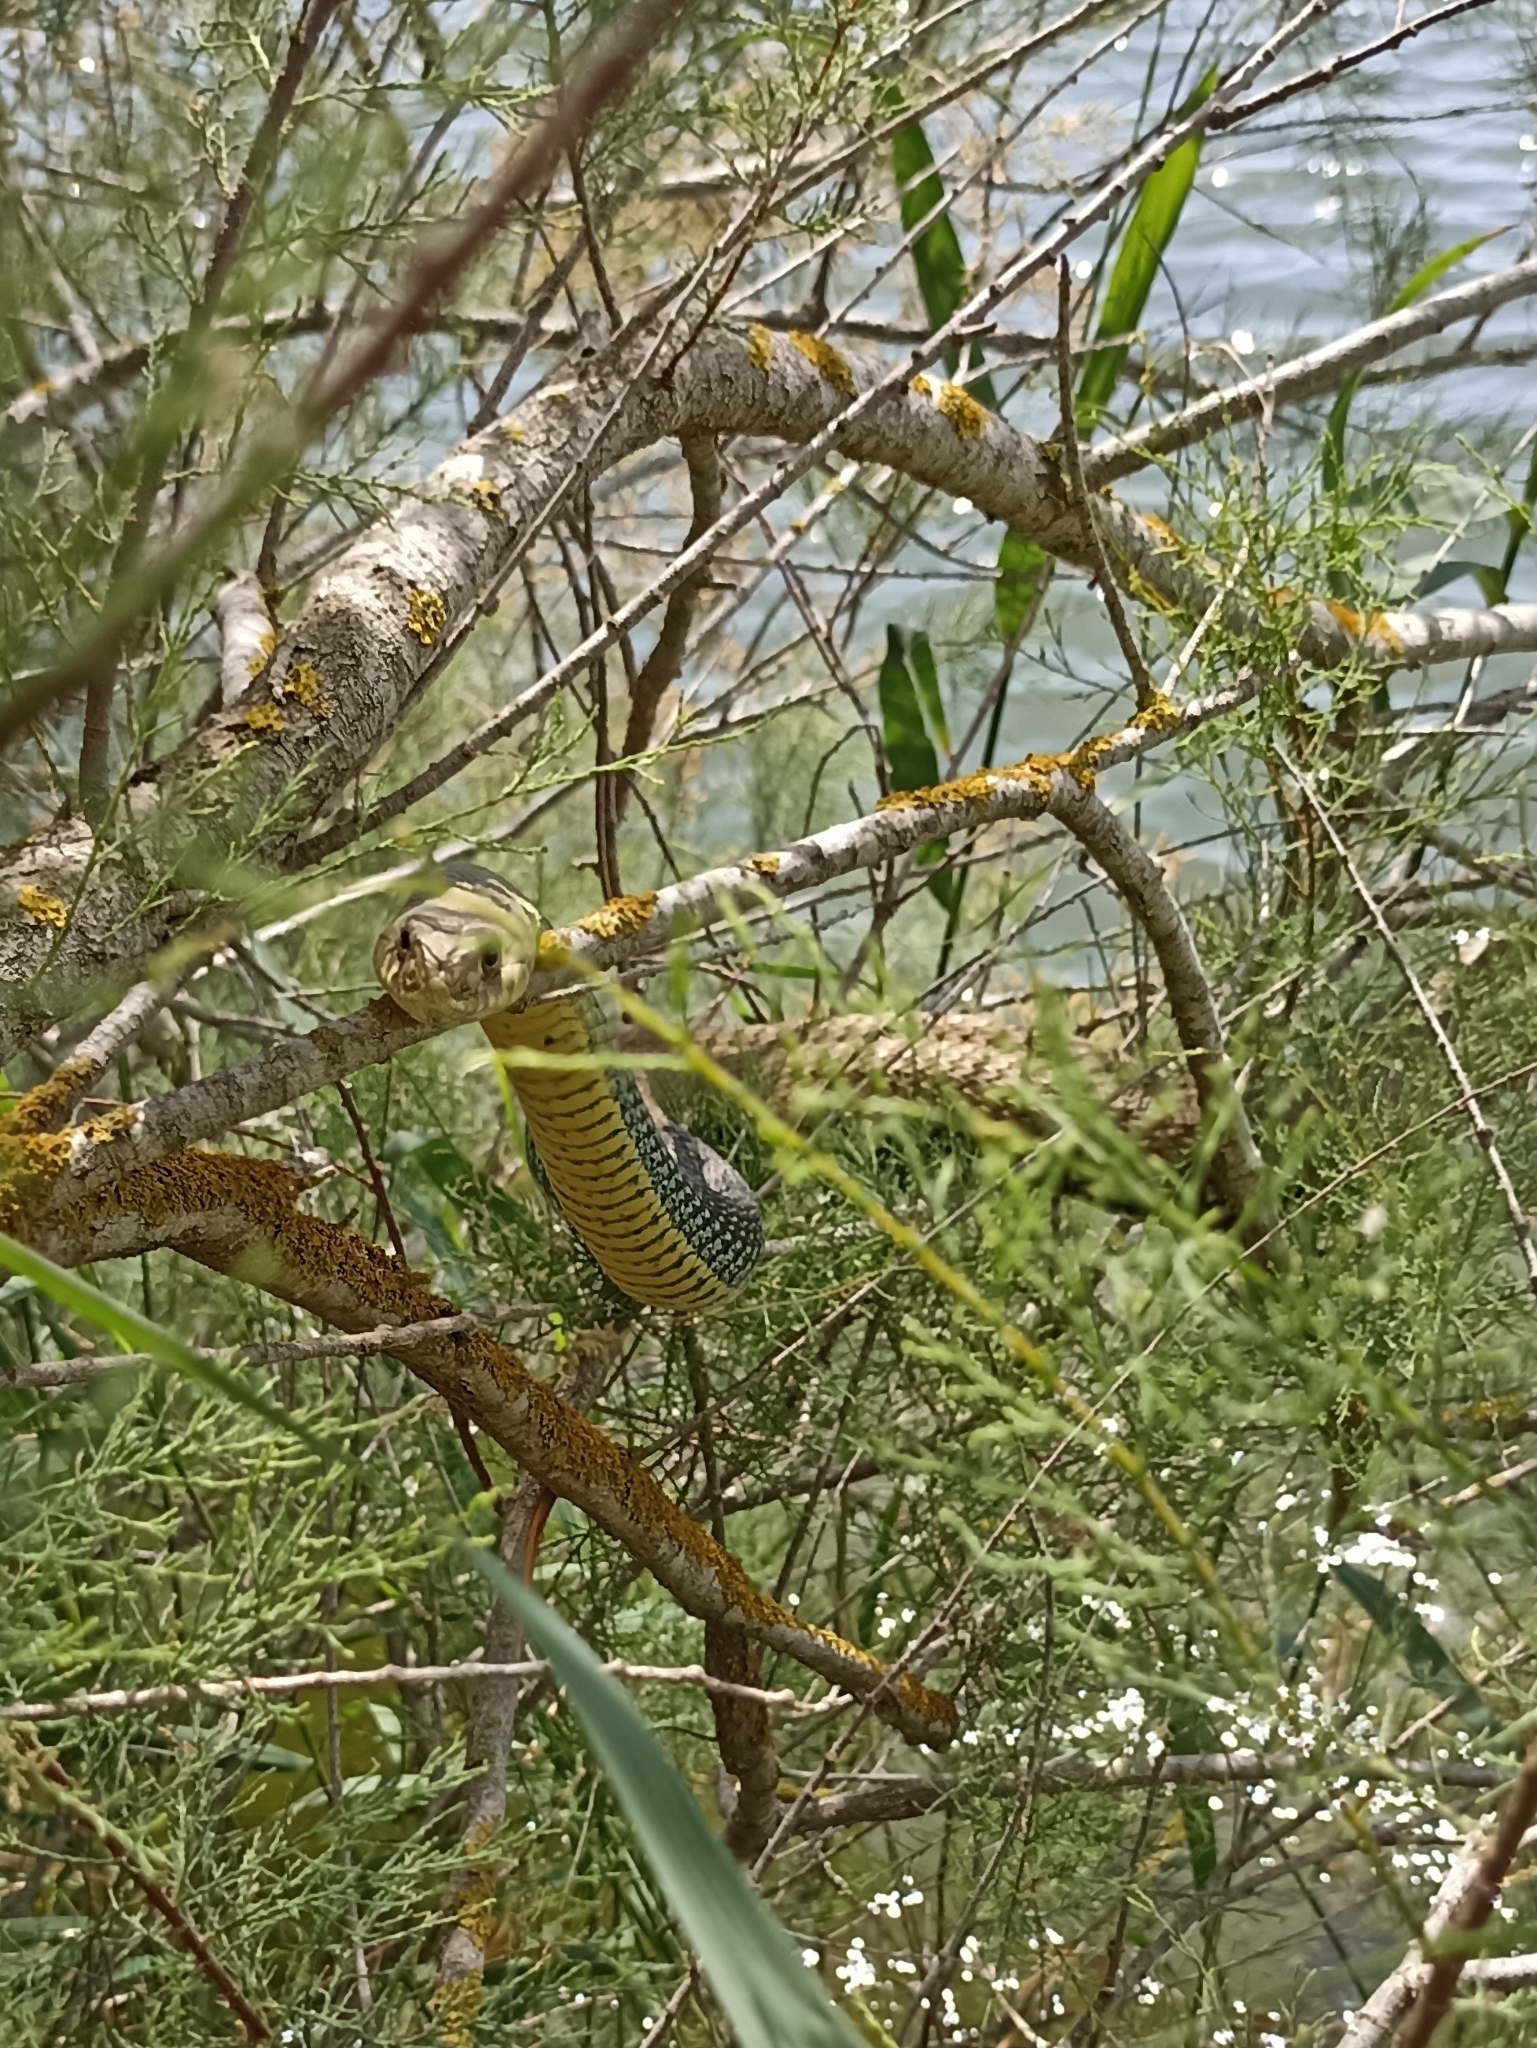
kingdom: Animalia
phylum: Chordata
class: Squamata
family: Psammophiidae
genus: Malpolon
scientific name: Malpolon monspessulanus
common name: Montpellier snake
